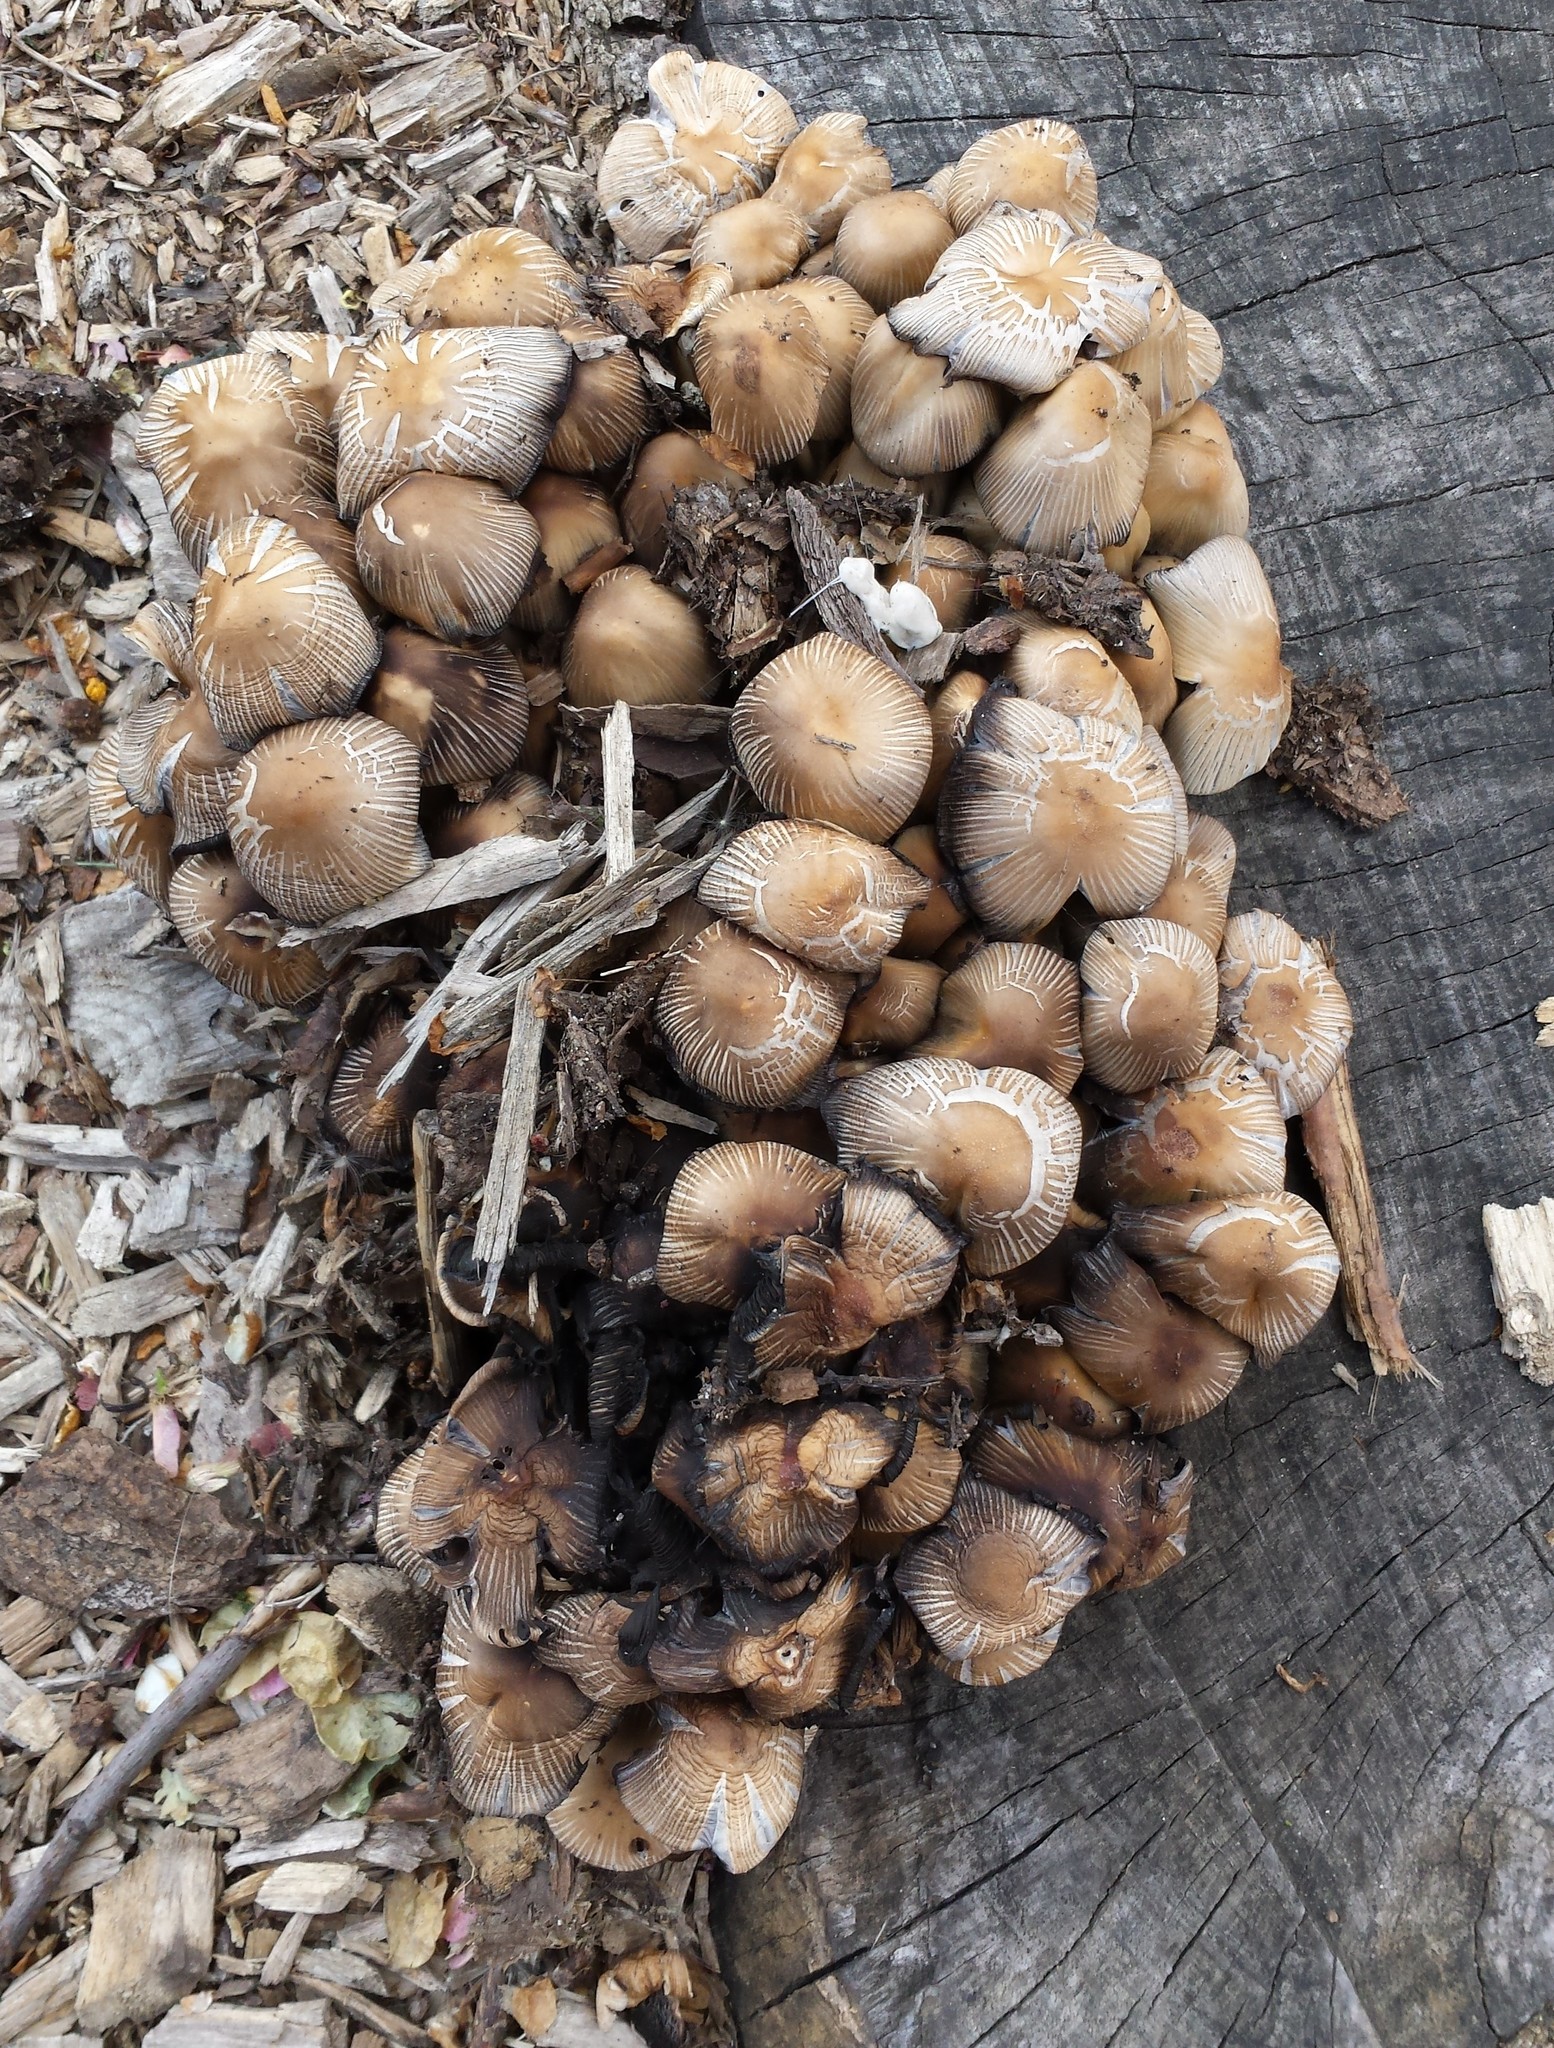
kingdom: Fungi
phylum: Basidiomycota
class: Agaricomycetes
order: Agaricales
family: Psathyrellaceae
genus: Coprinellus
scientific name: Coprinellus micaceus
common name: Glistening ink-cap
